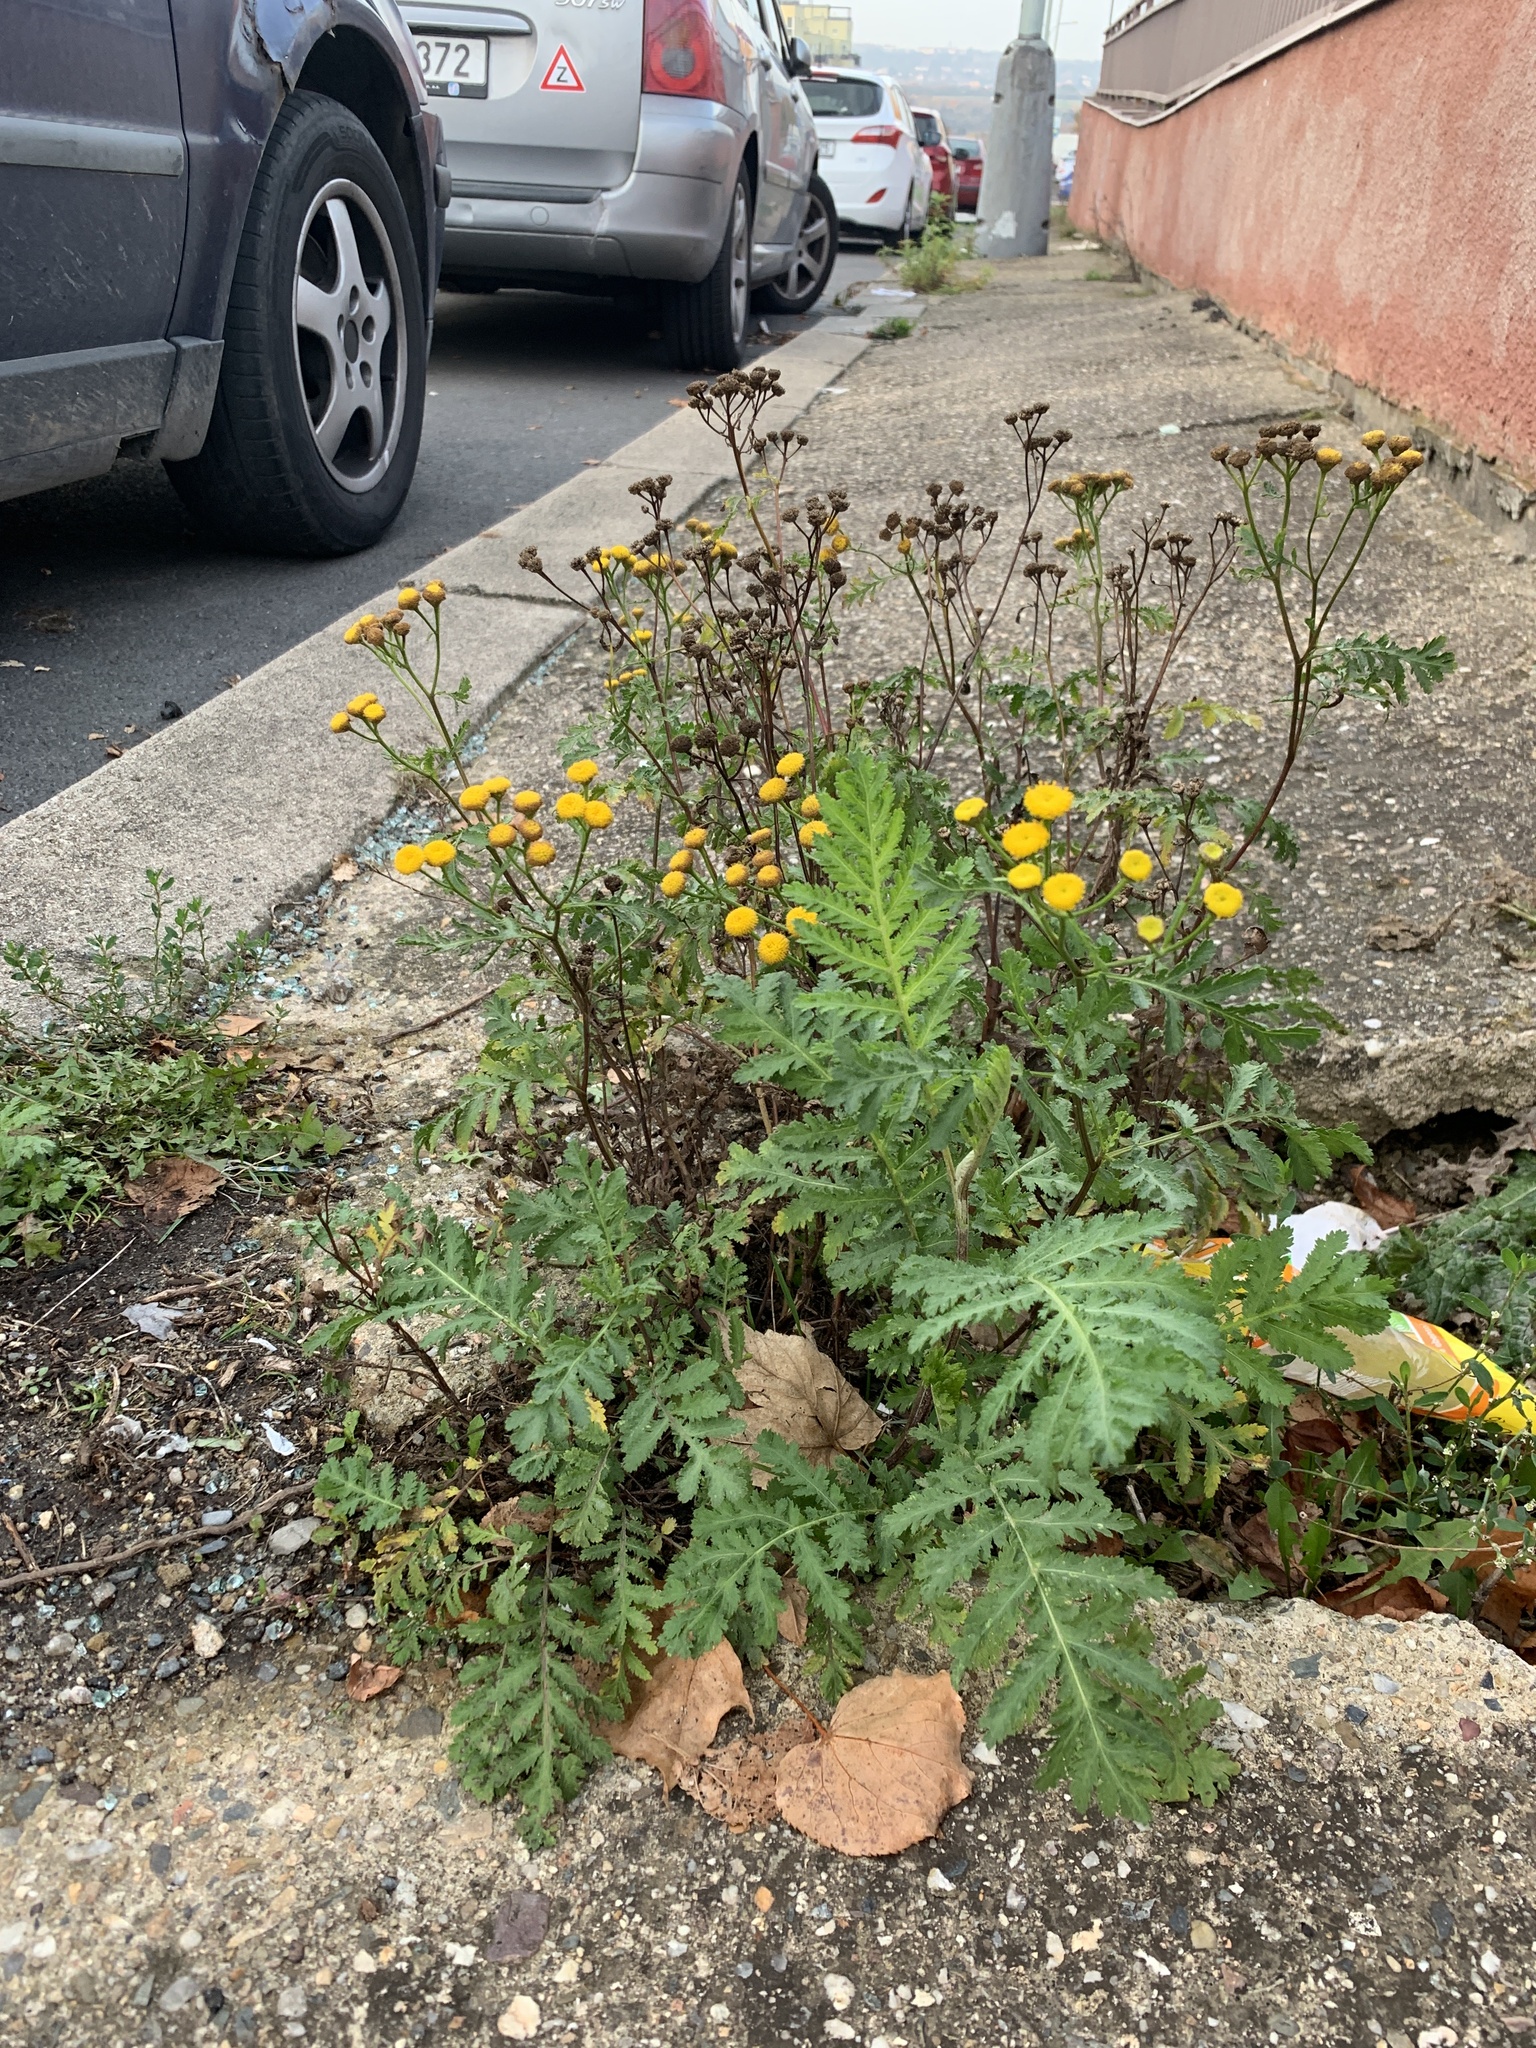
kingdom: Plantae
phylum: Tracheophyta
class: Magnoliopsida
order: Asterales
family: Asteraceae
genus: Tanacetum
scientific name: Tanacetum vulgare
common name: Common tansy
